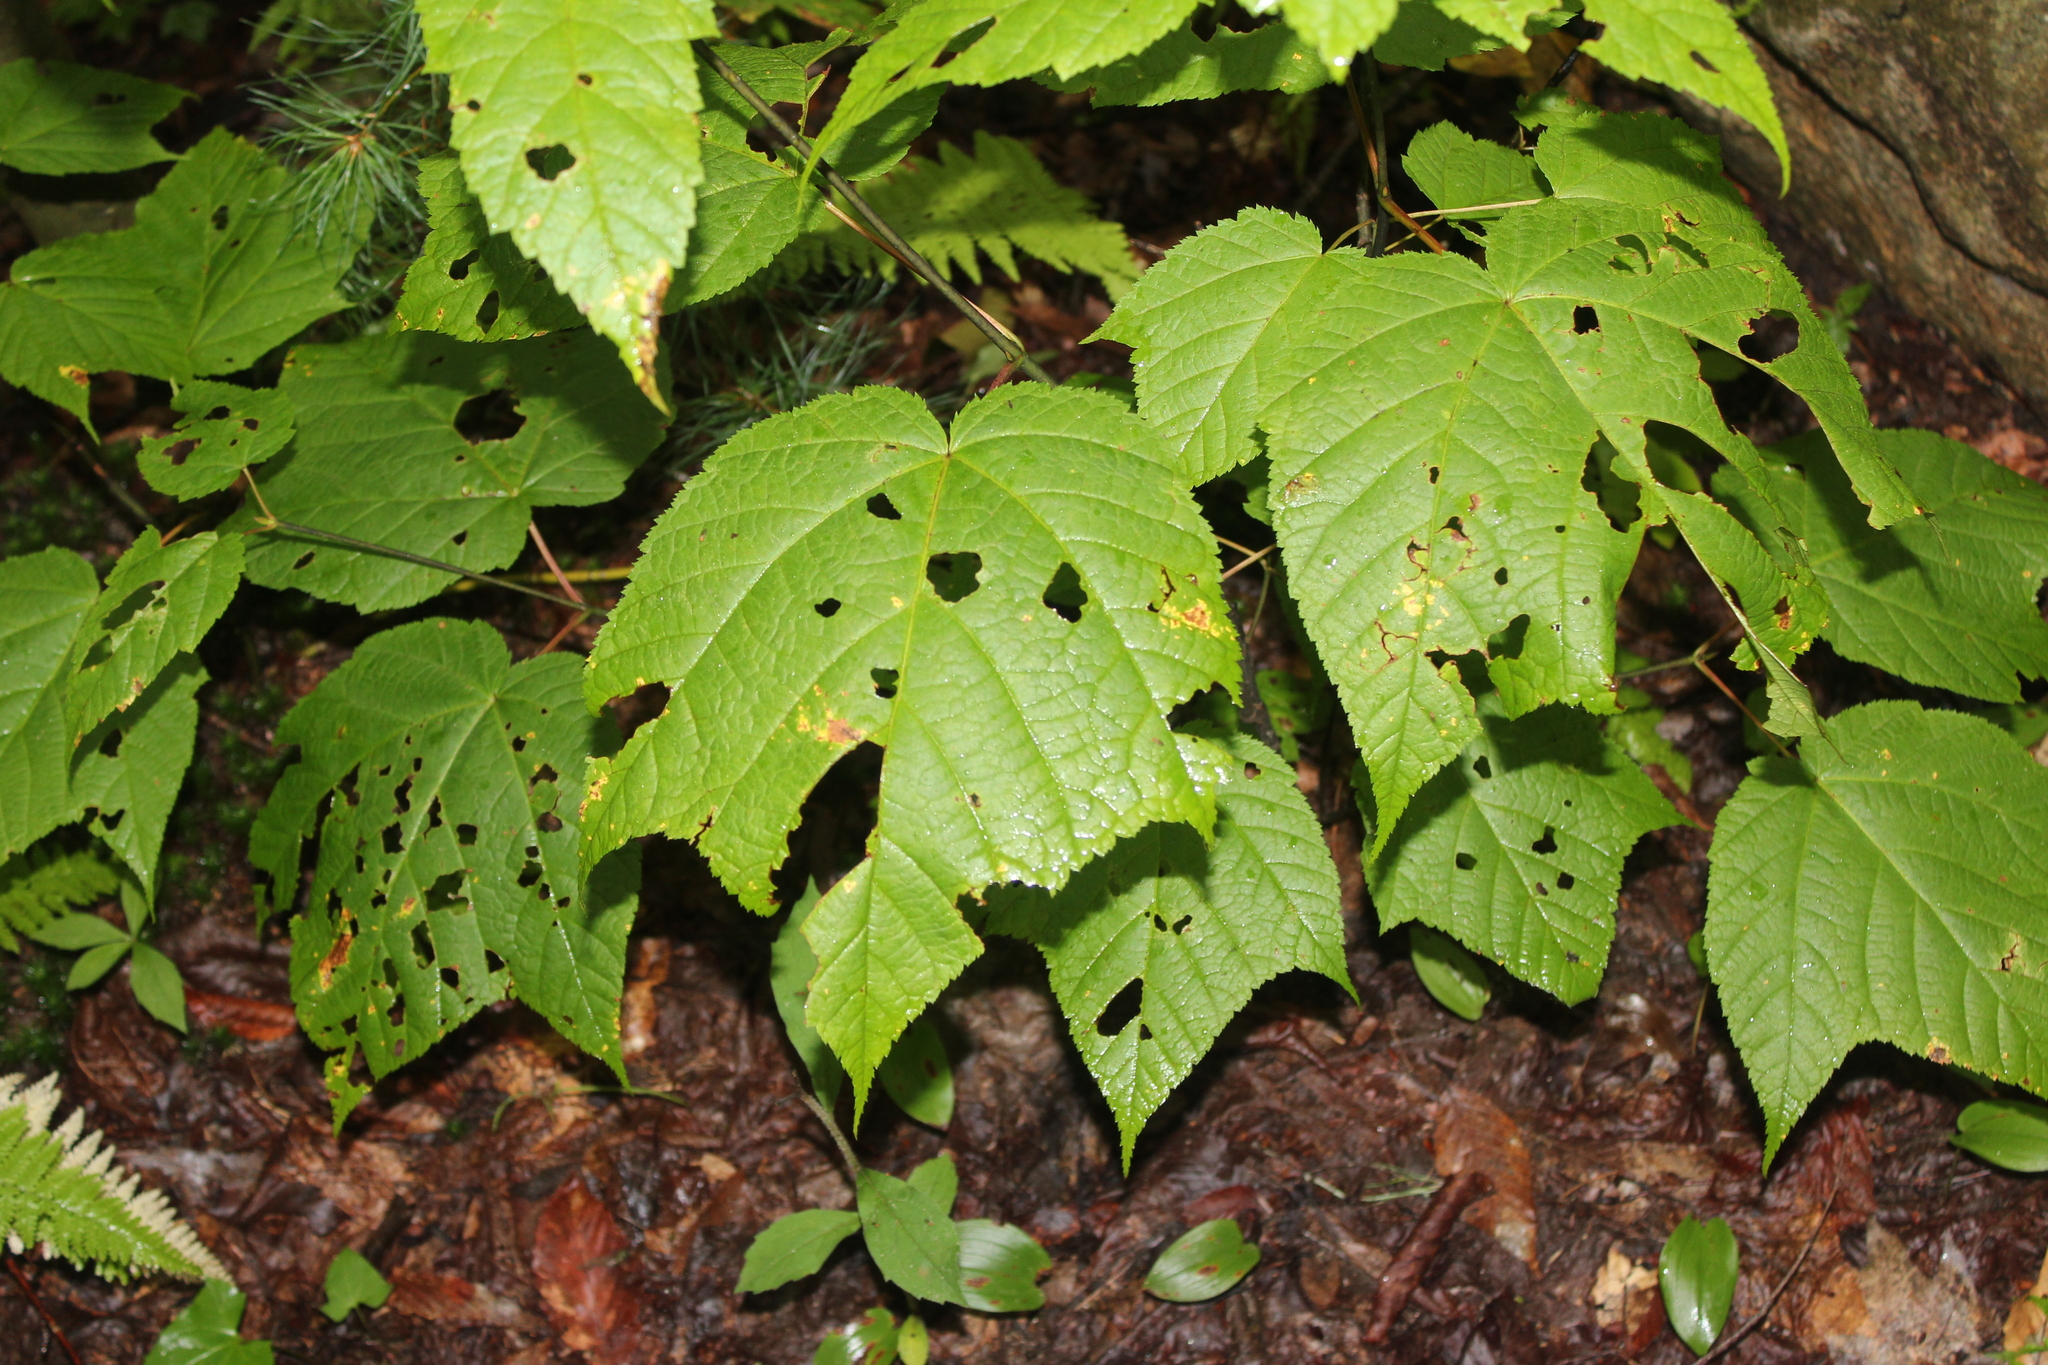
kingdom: Plantae
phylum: Tracheophyta
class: Magnoliopsida
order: Sapindales
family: Sapindaceae
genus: Acer
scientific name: Acer pensylvanicum
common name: Moosewood
